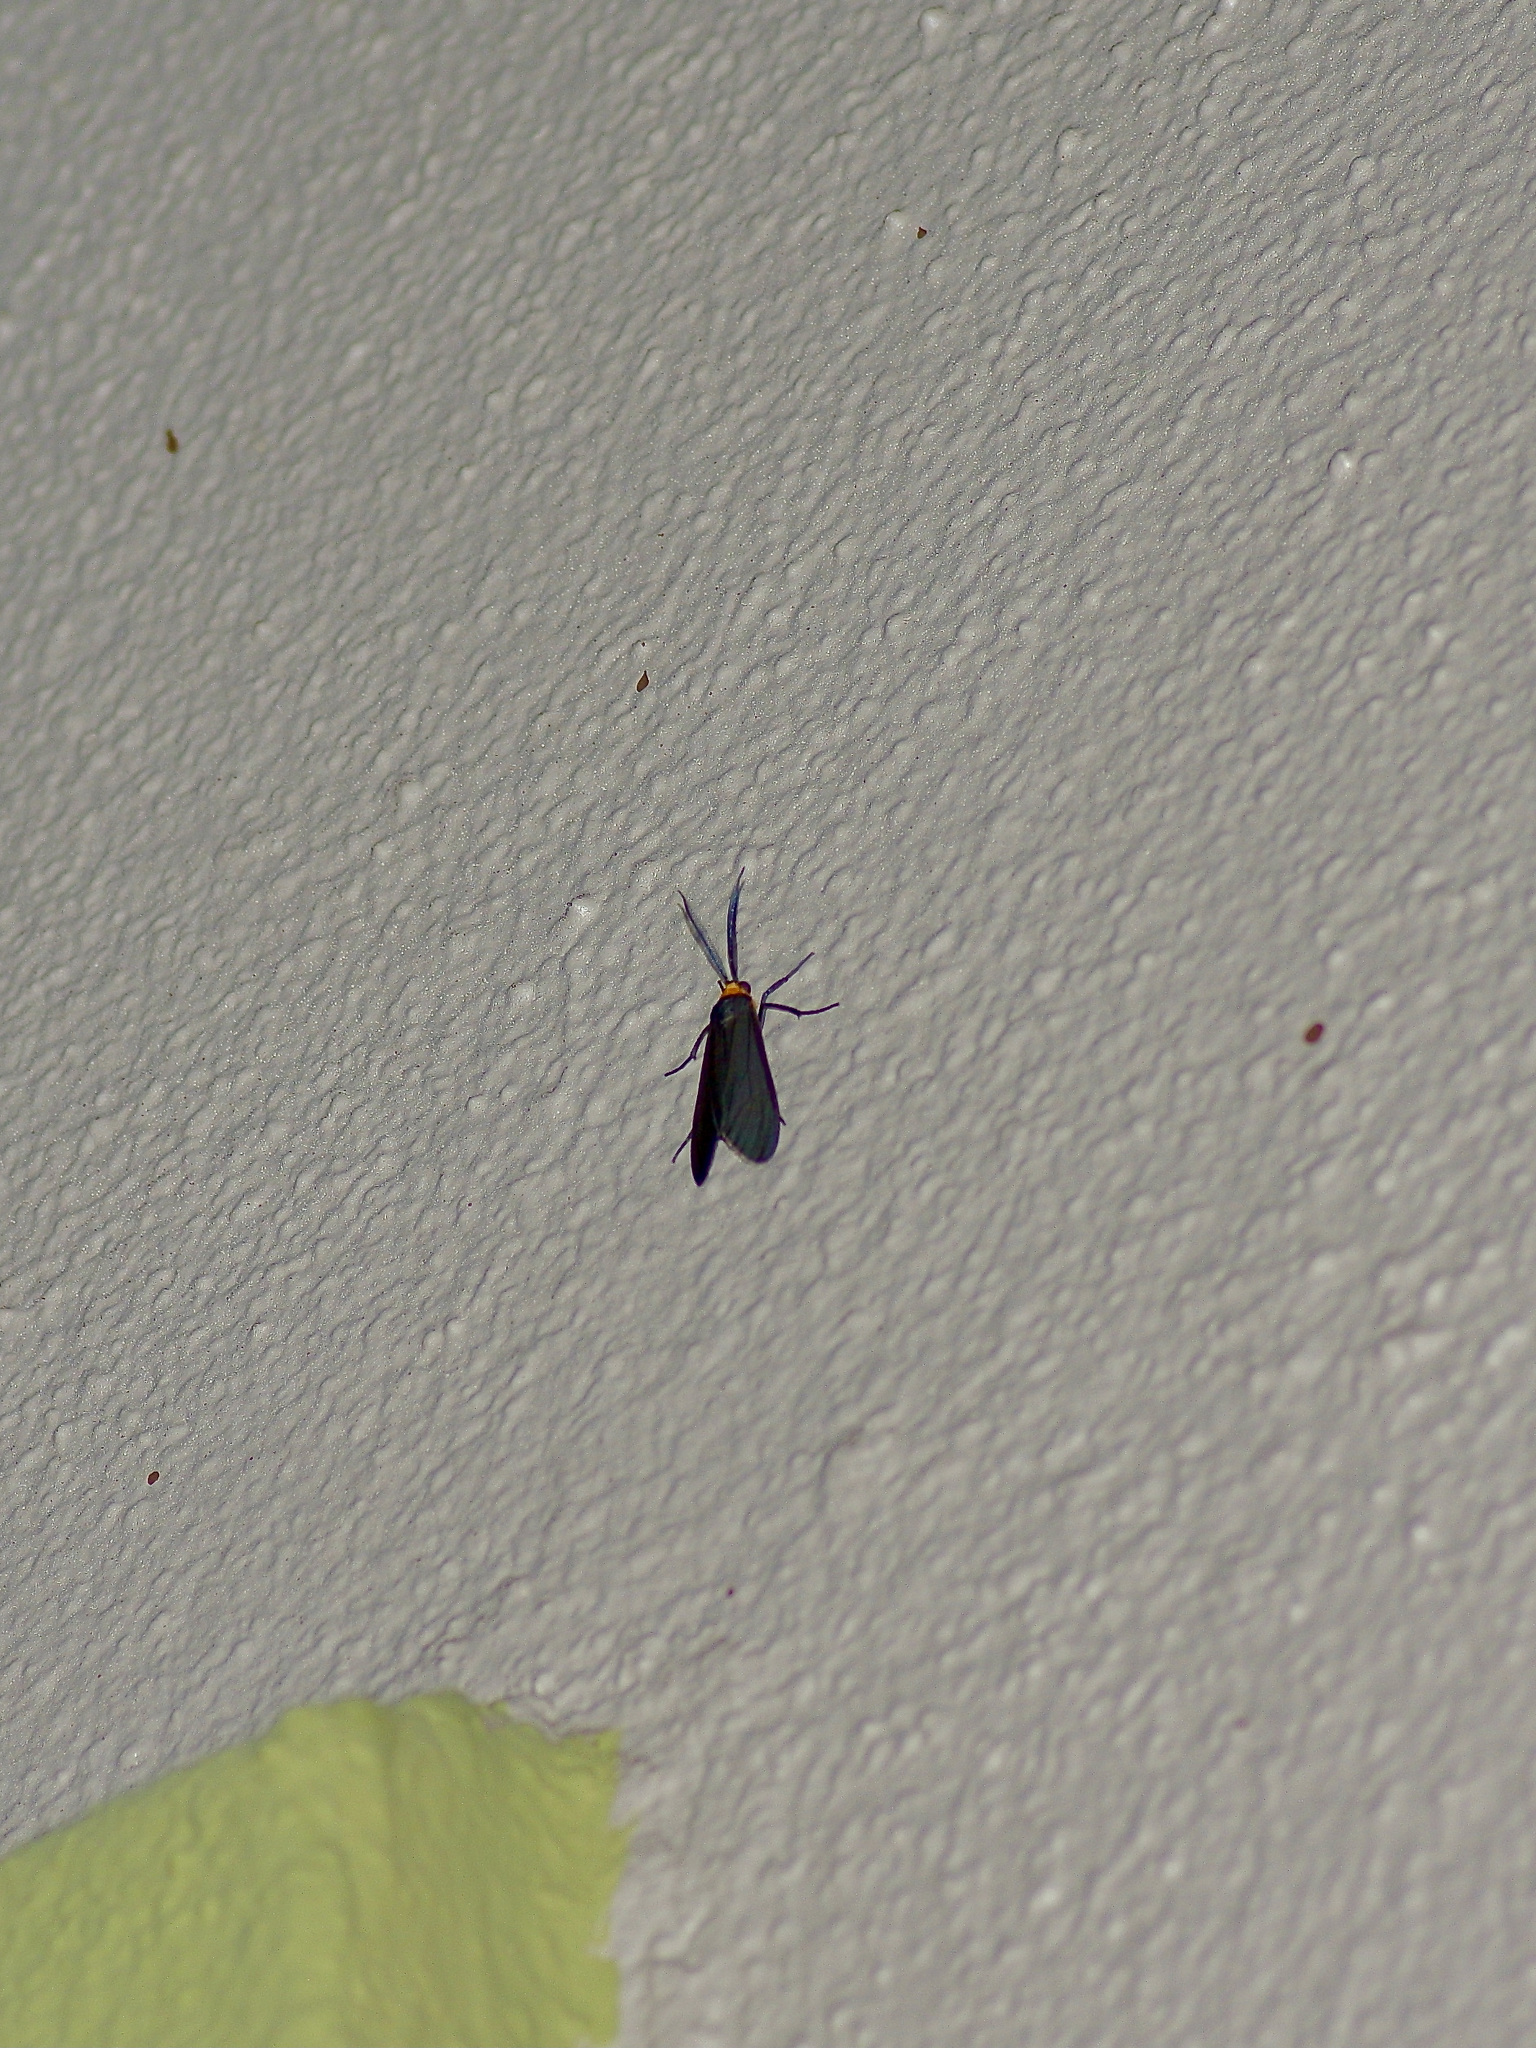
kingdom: Animalia
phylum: Arthropoda
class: Insecta
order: Lepidoptera
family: Erebidae
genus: Cisseps
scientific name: Cisseps fulvicollis
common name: Yellow-collared scape moth
